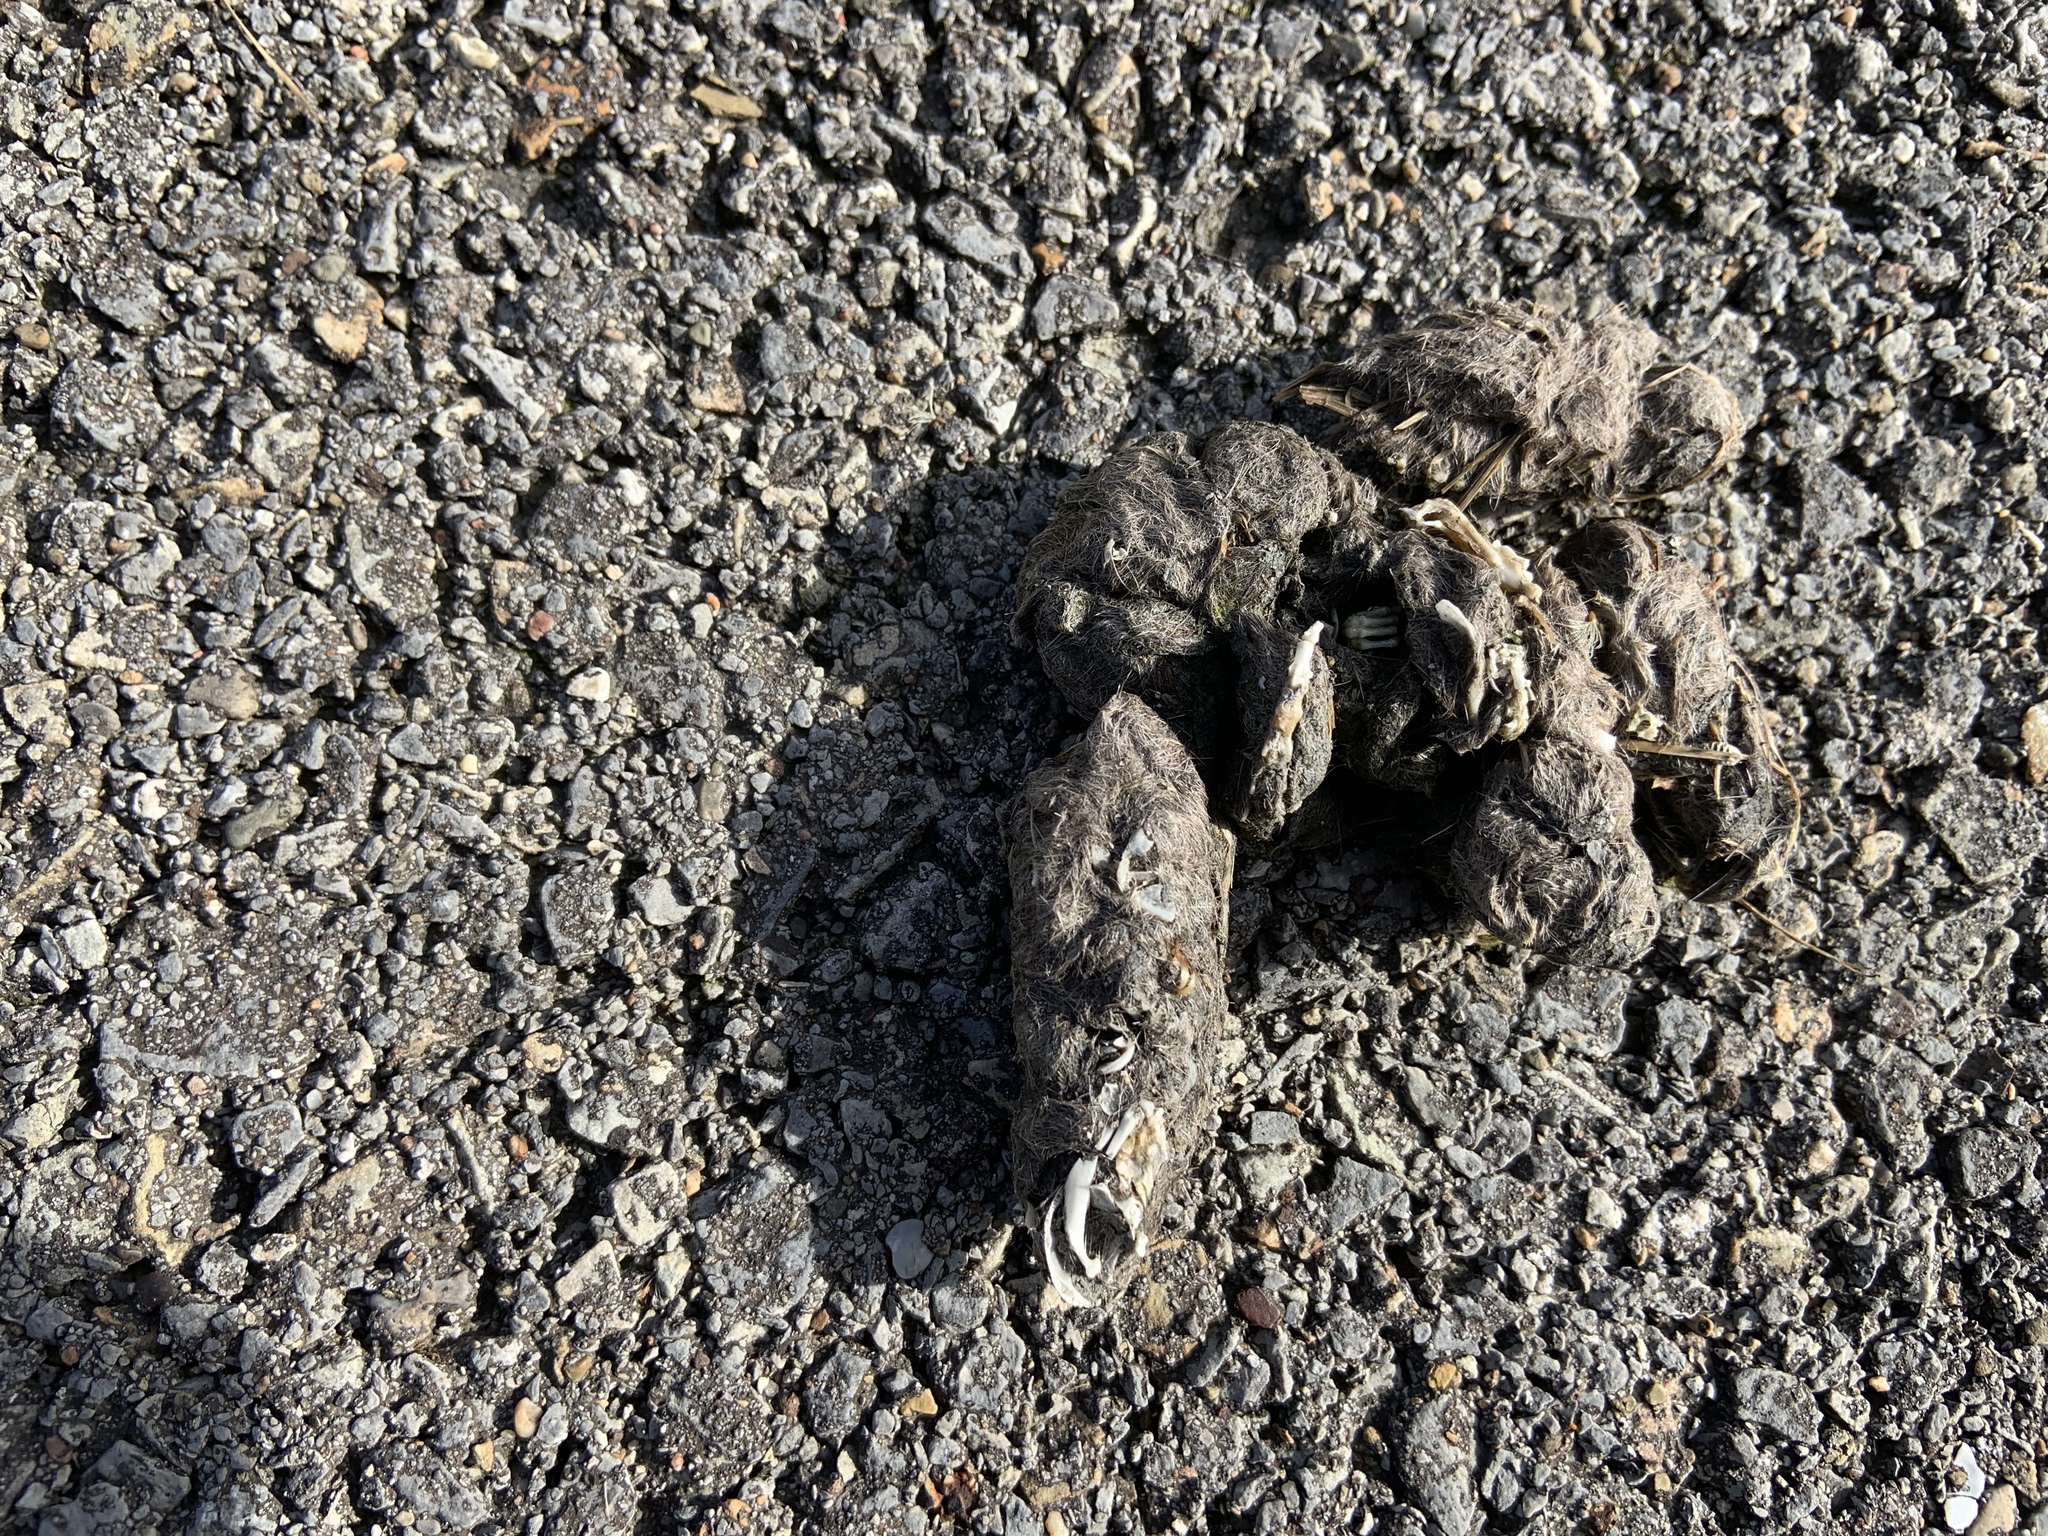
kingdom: Animalia
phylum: Chordata
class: Mammalia
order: Carnivora
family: Canidae
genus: Canis
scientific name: Canis latrans
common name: Coyote
